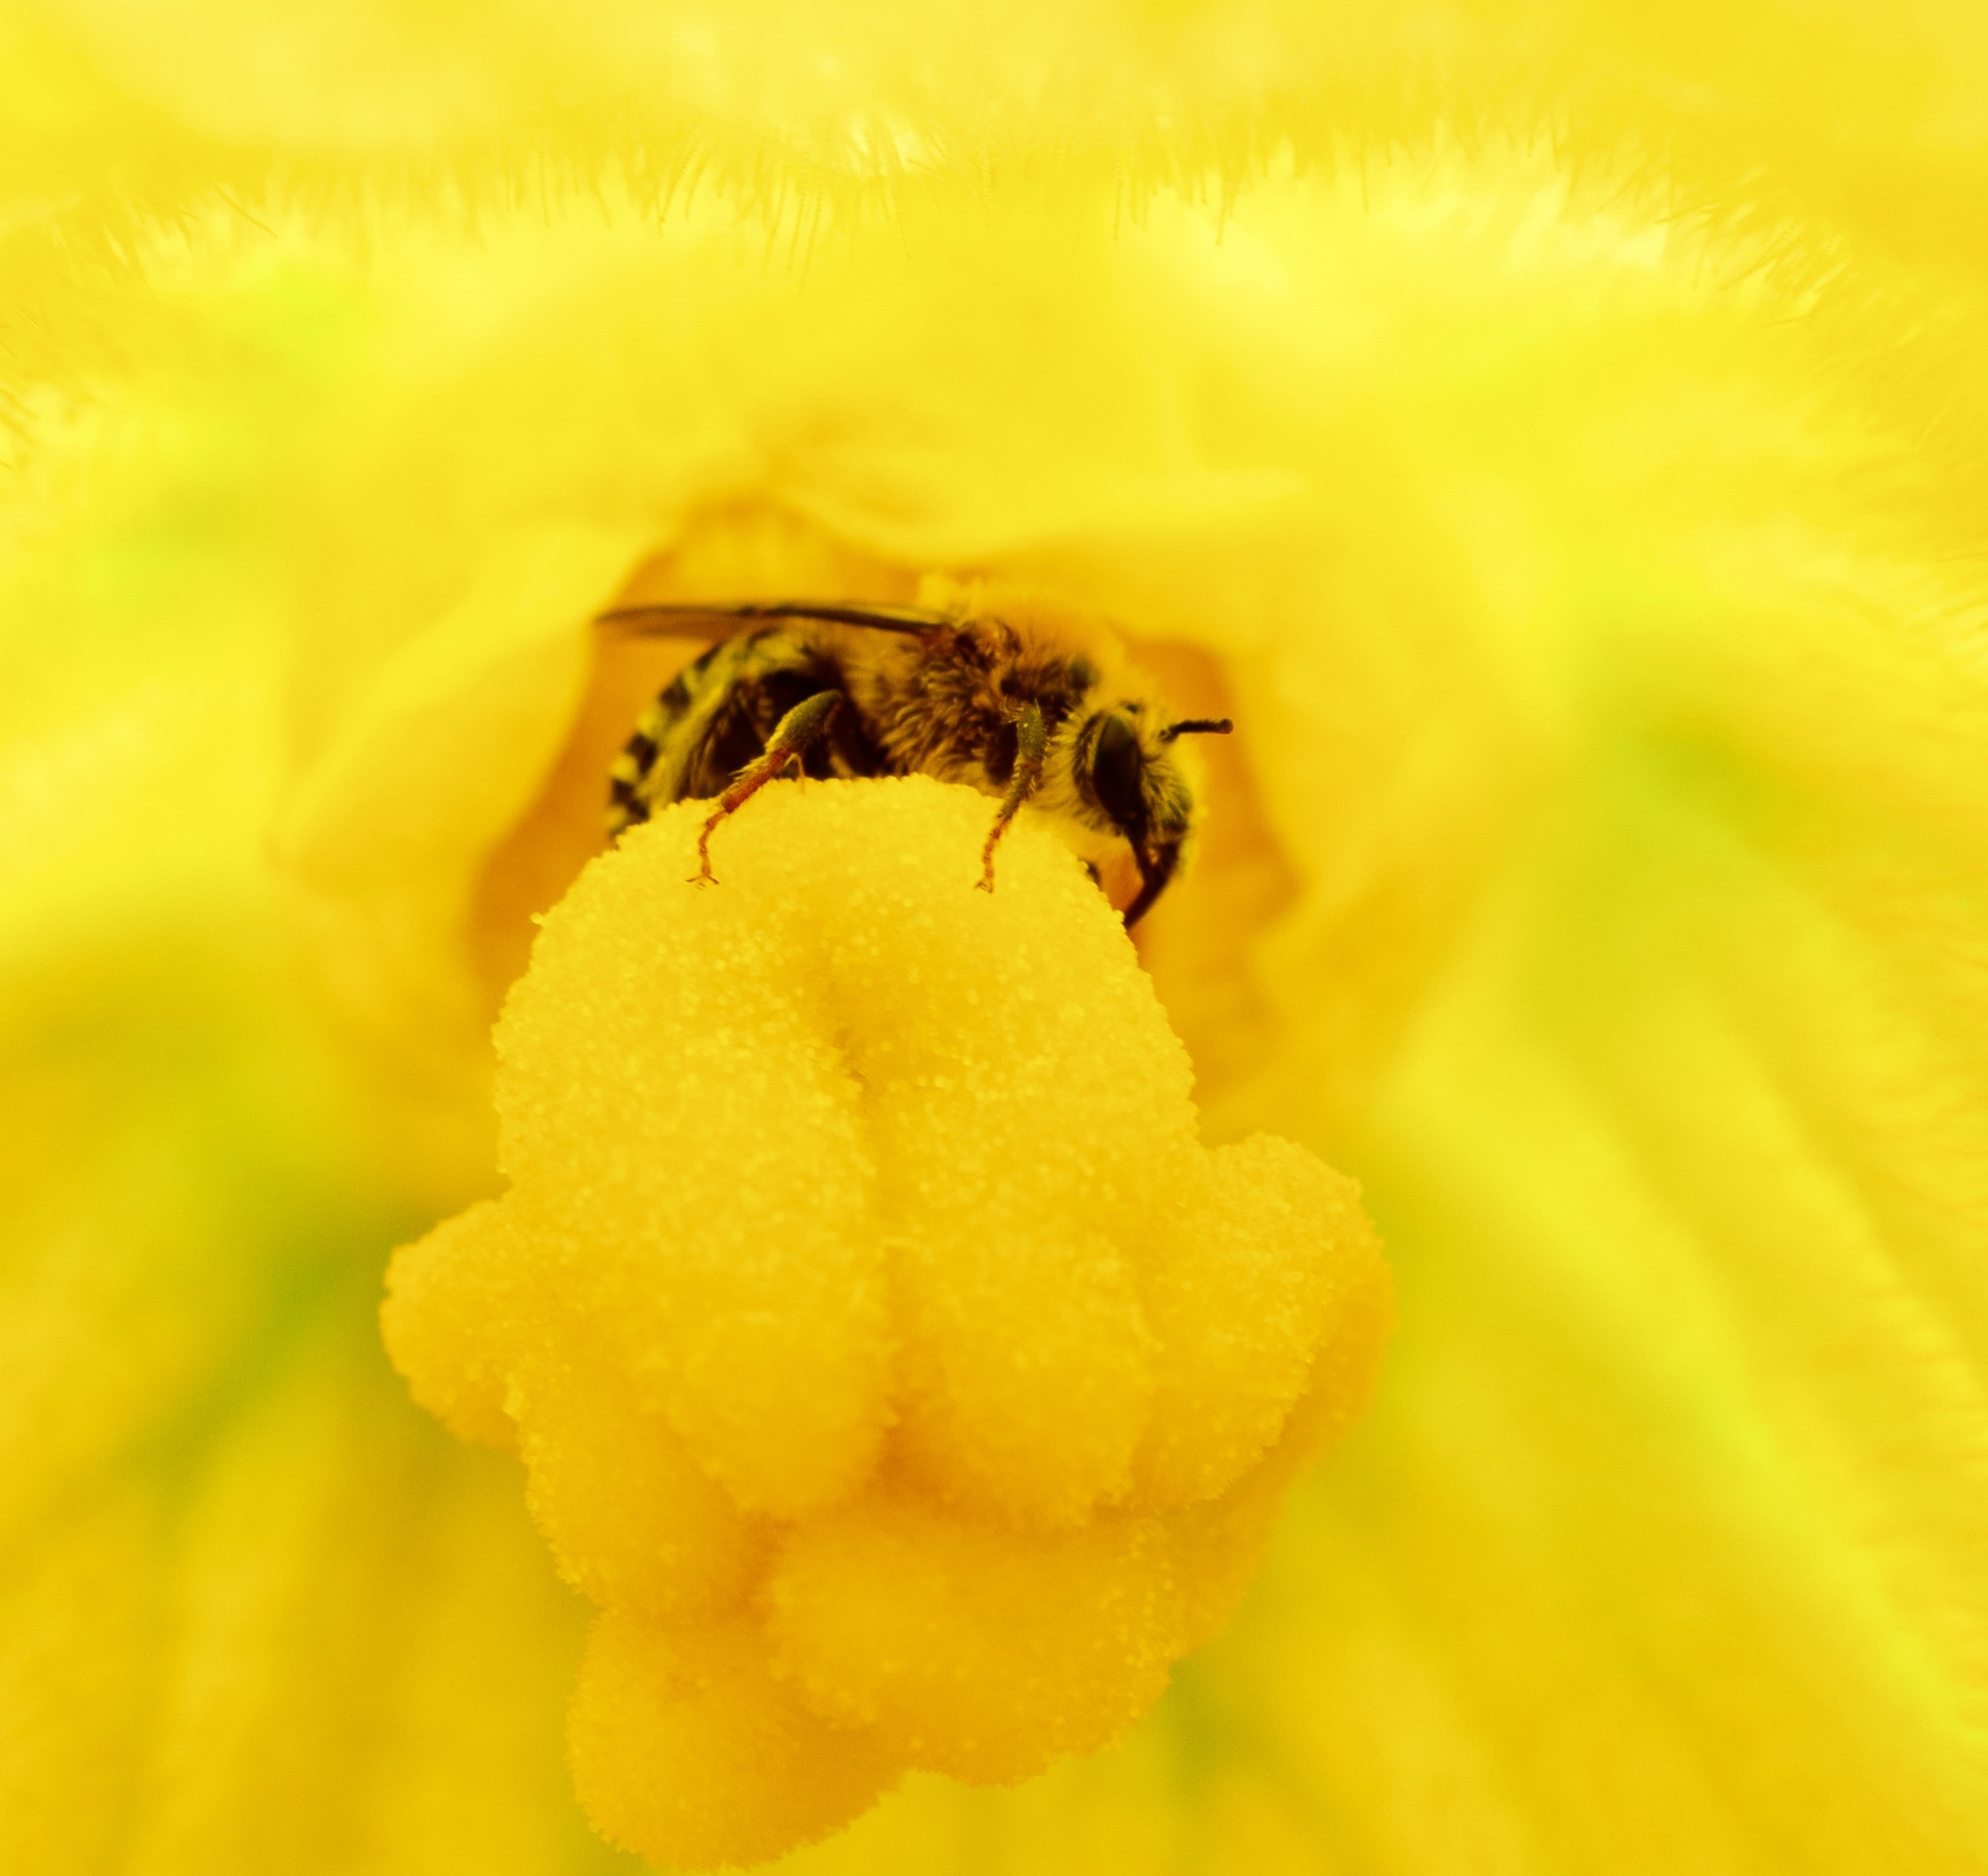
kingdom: Animalia
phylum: Arthropoda
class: Insecta
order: Hymenoptera
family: Apidae
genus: Peponapis
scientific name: Peponapis pruinosa
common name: Pruinose squash bee
